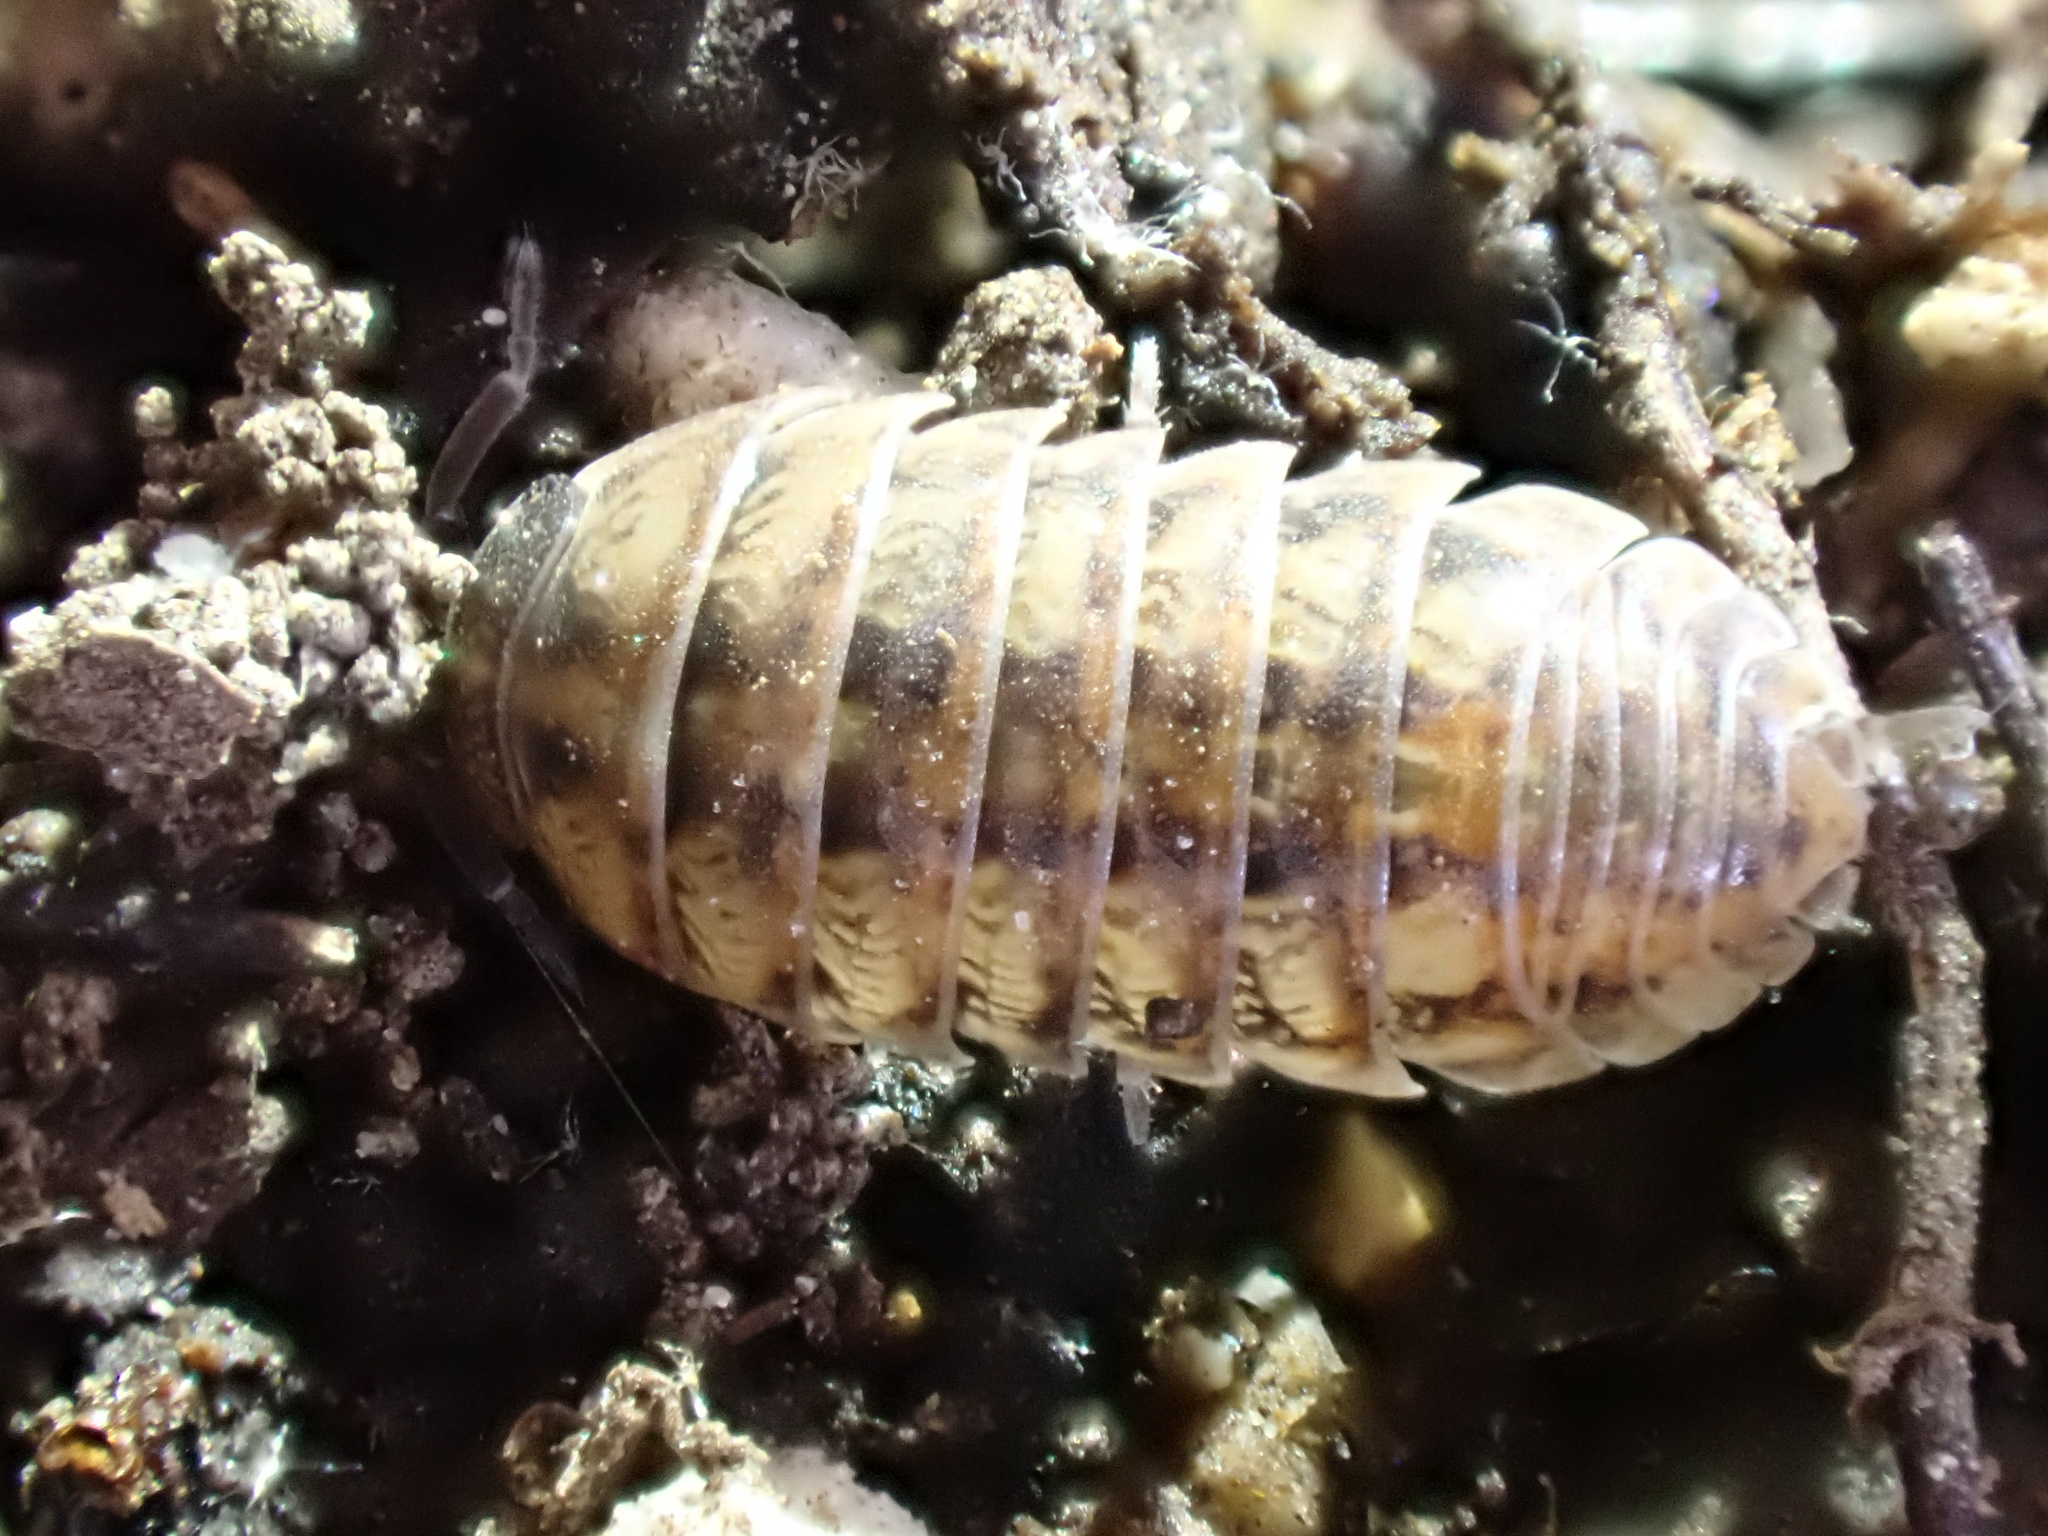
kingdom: Animalia
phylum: Arthropoda
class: Malacostraca
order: Isopoda
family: Armadillidiidae
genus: Armadillidium
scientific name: Armadillidium vulgare
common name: Common pill woodlouse
